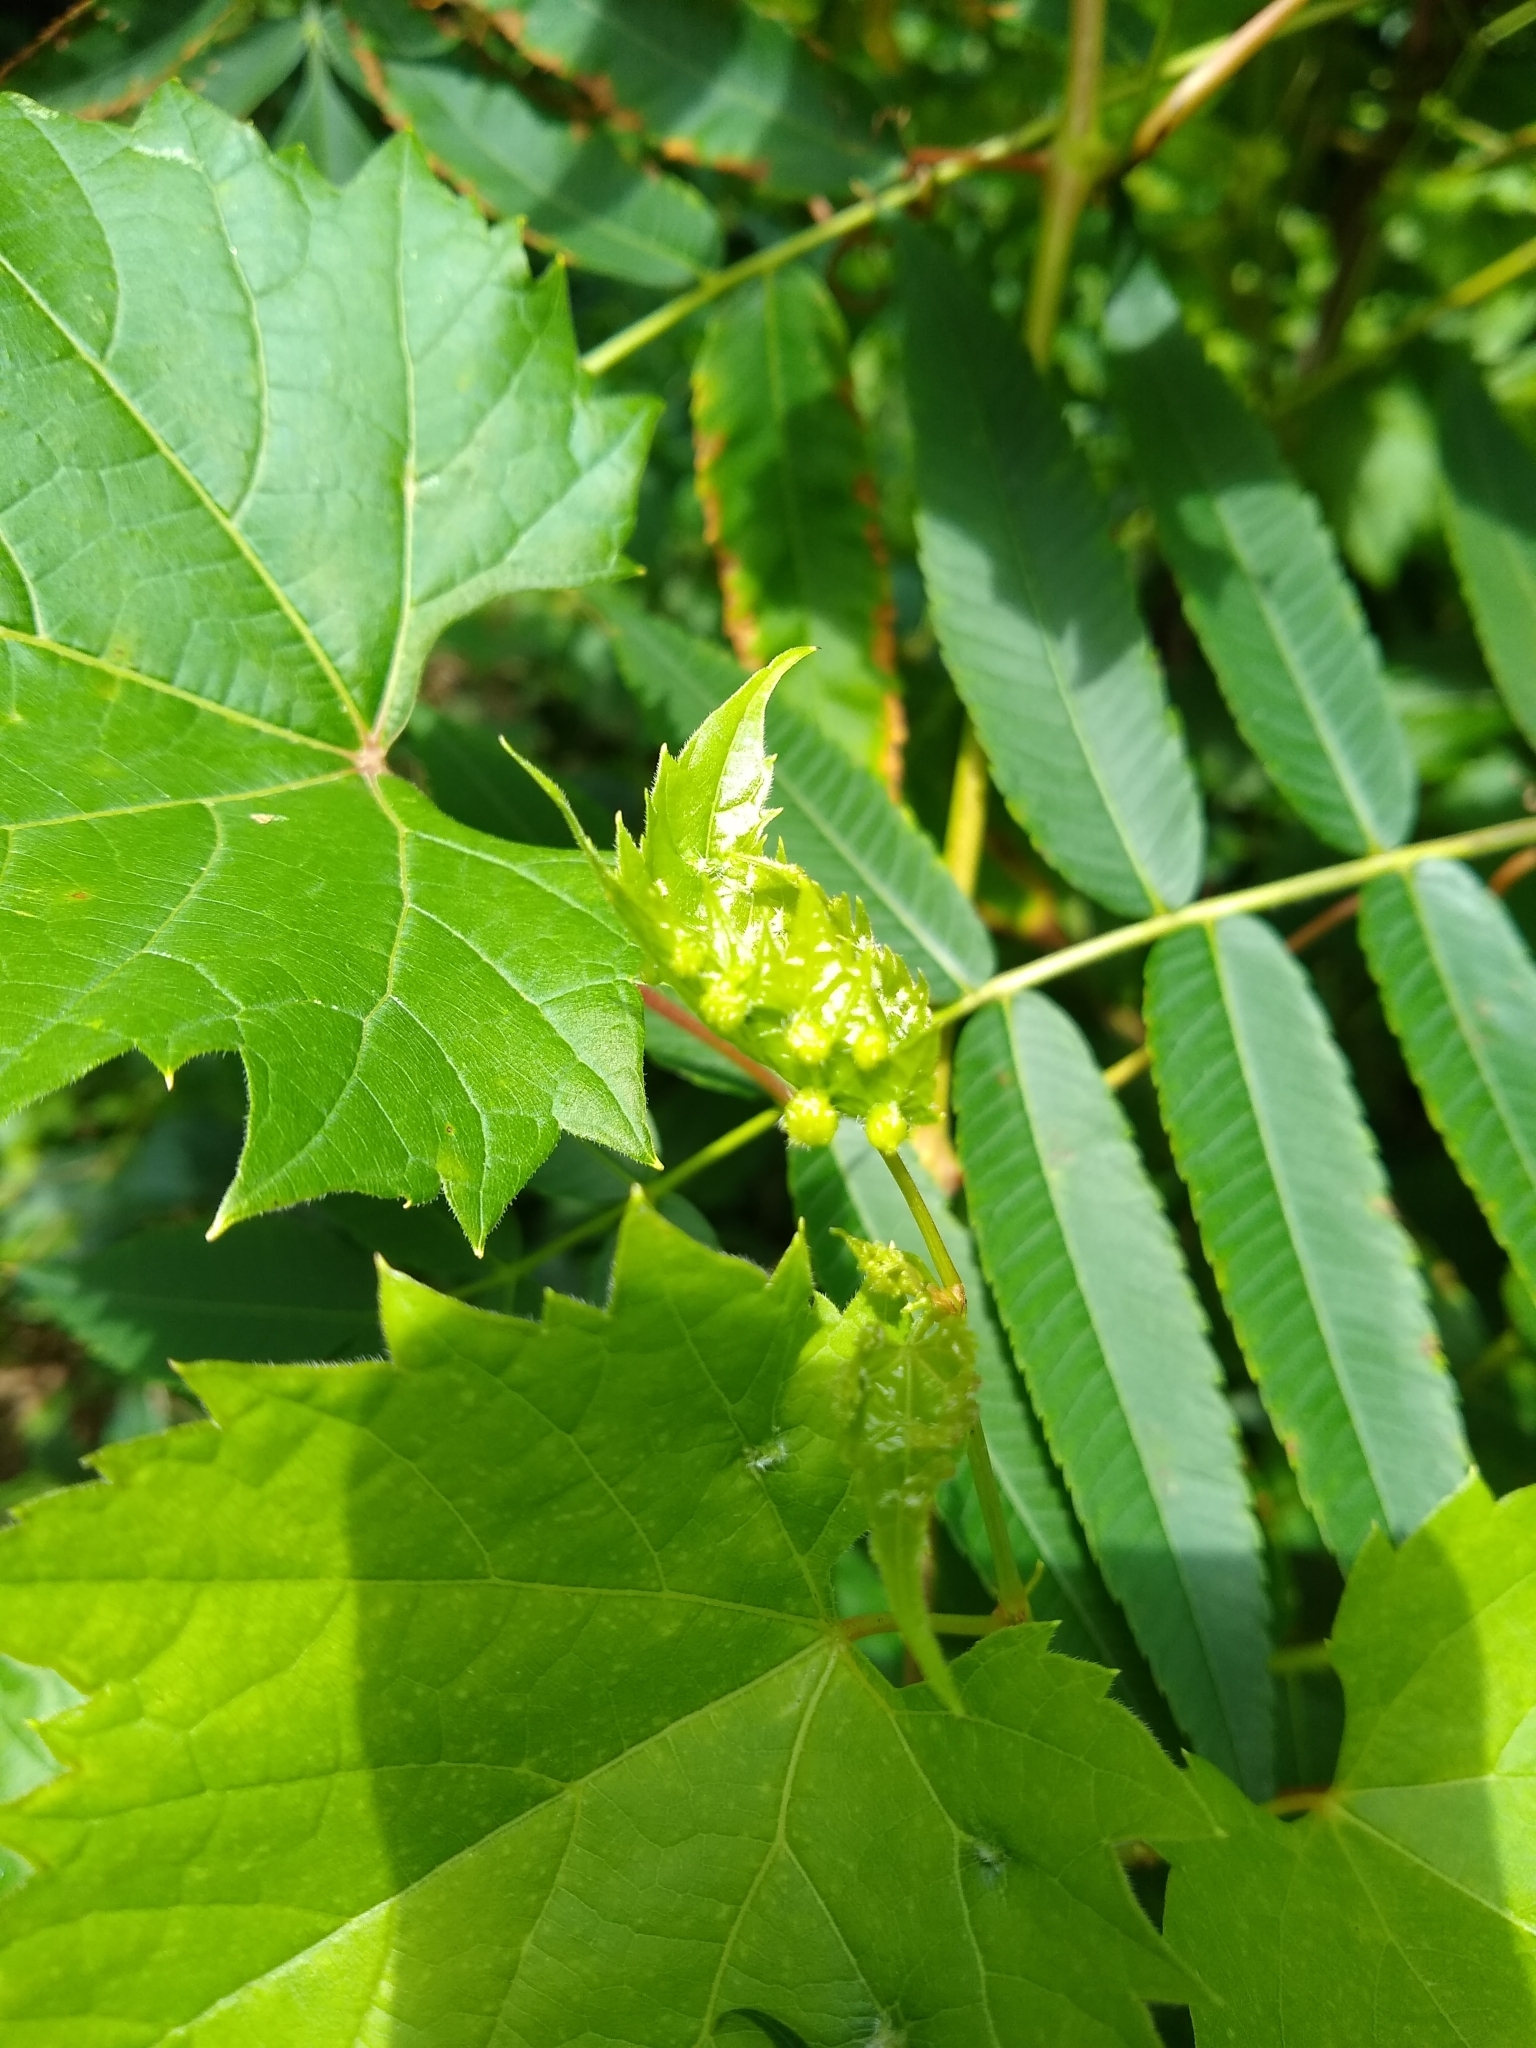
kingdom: Animalia
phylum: Arthropoda
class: Insecta
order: Hemiptera
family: Phylloxeridae
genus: Daktulosphaira
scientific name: Daktulosphaira vitifoliae
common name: Grape phylloxera
